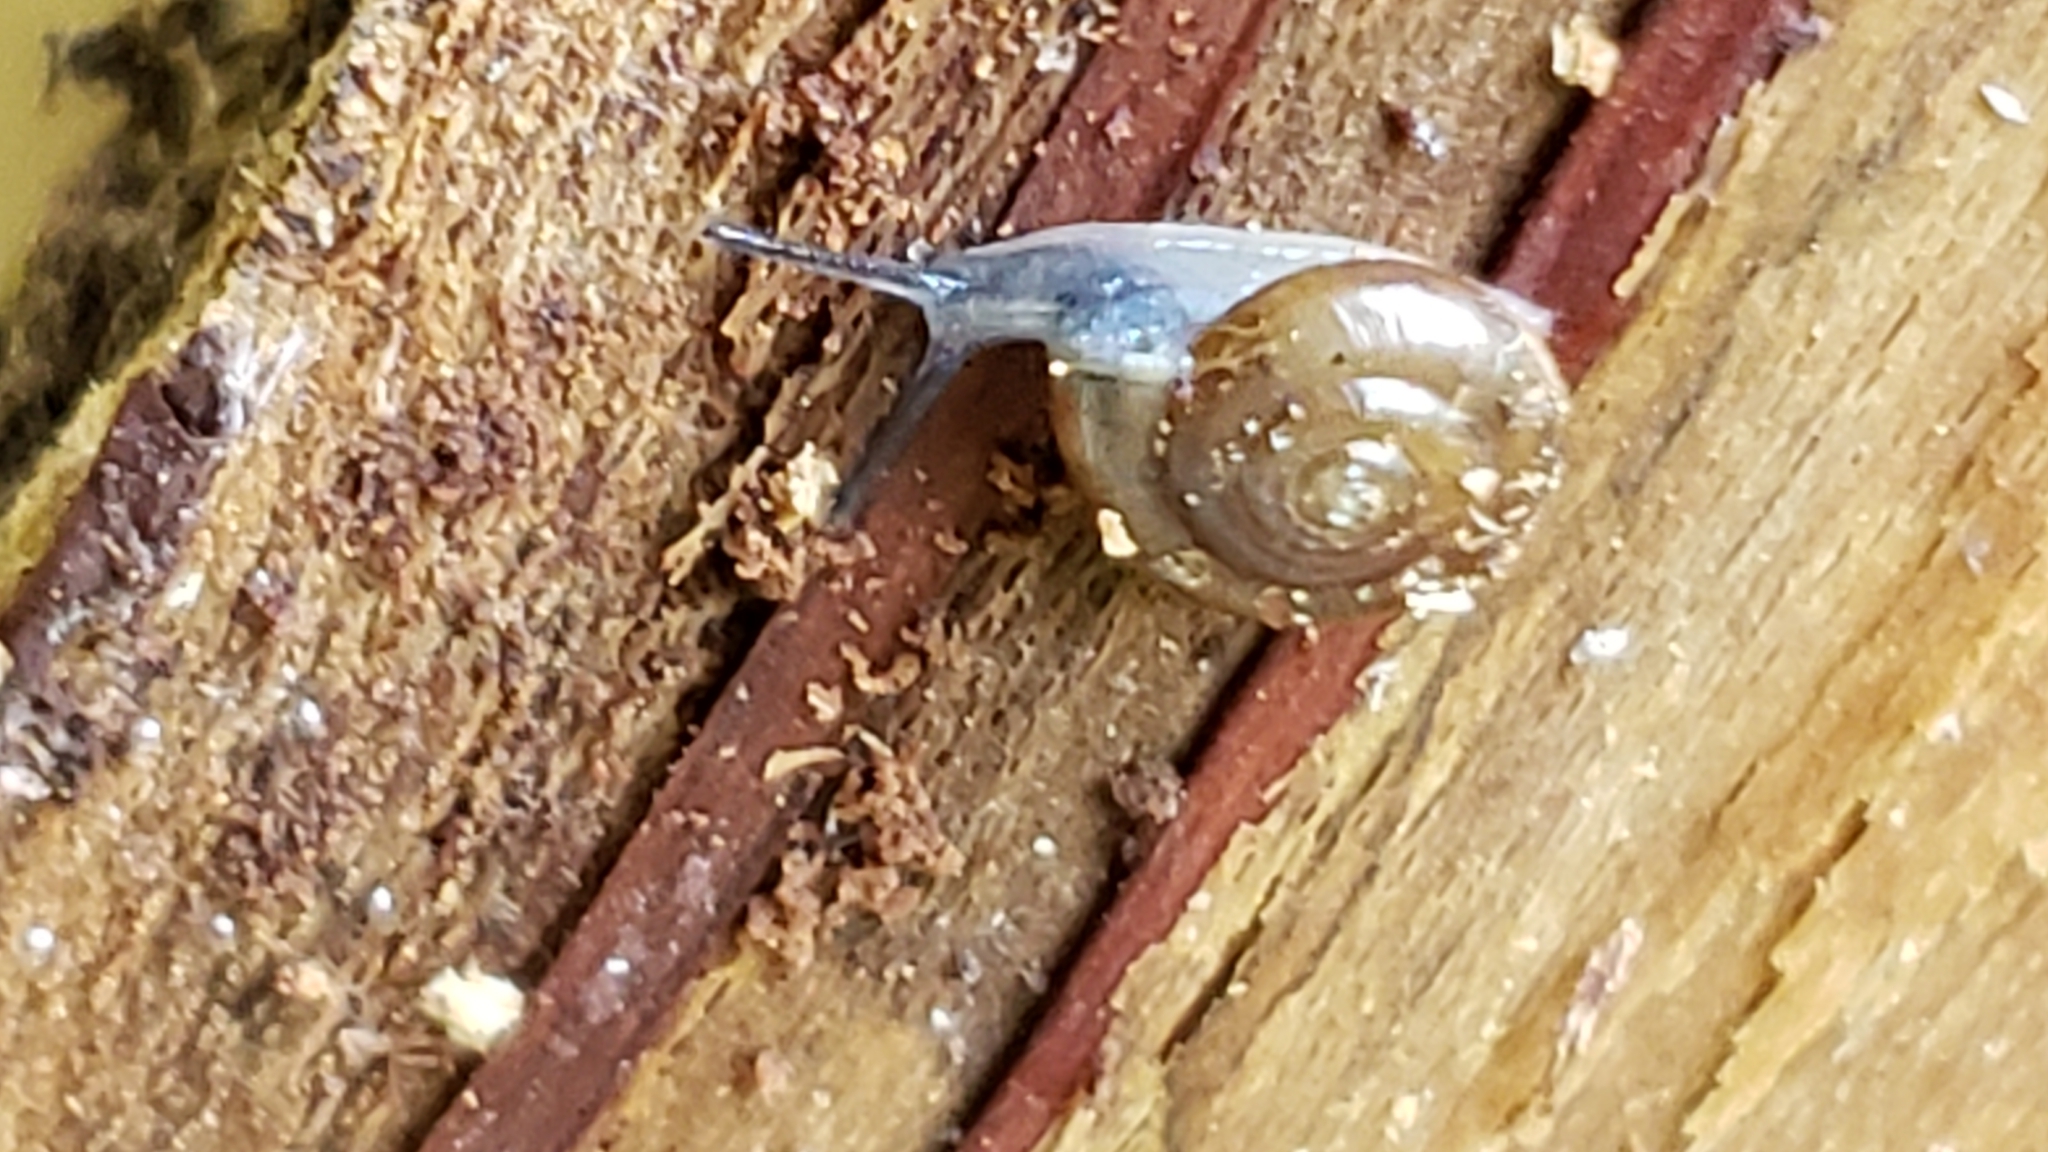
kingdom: Animalia
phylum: Mollusca
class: Gastropoda
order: Stylommatophora
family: Gastrodontidae
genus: Zonitoides
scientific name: Zonitoides arboreus
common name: Quick gloss
